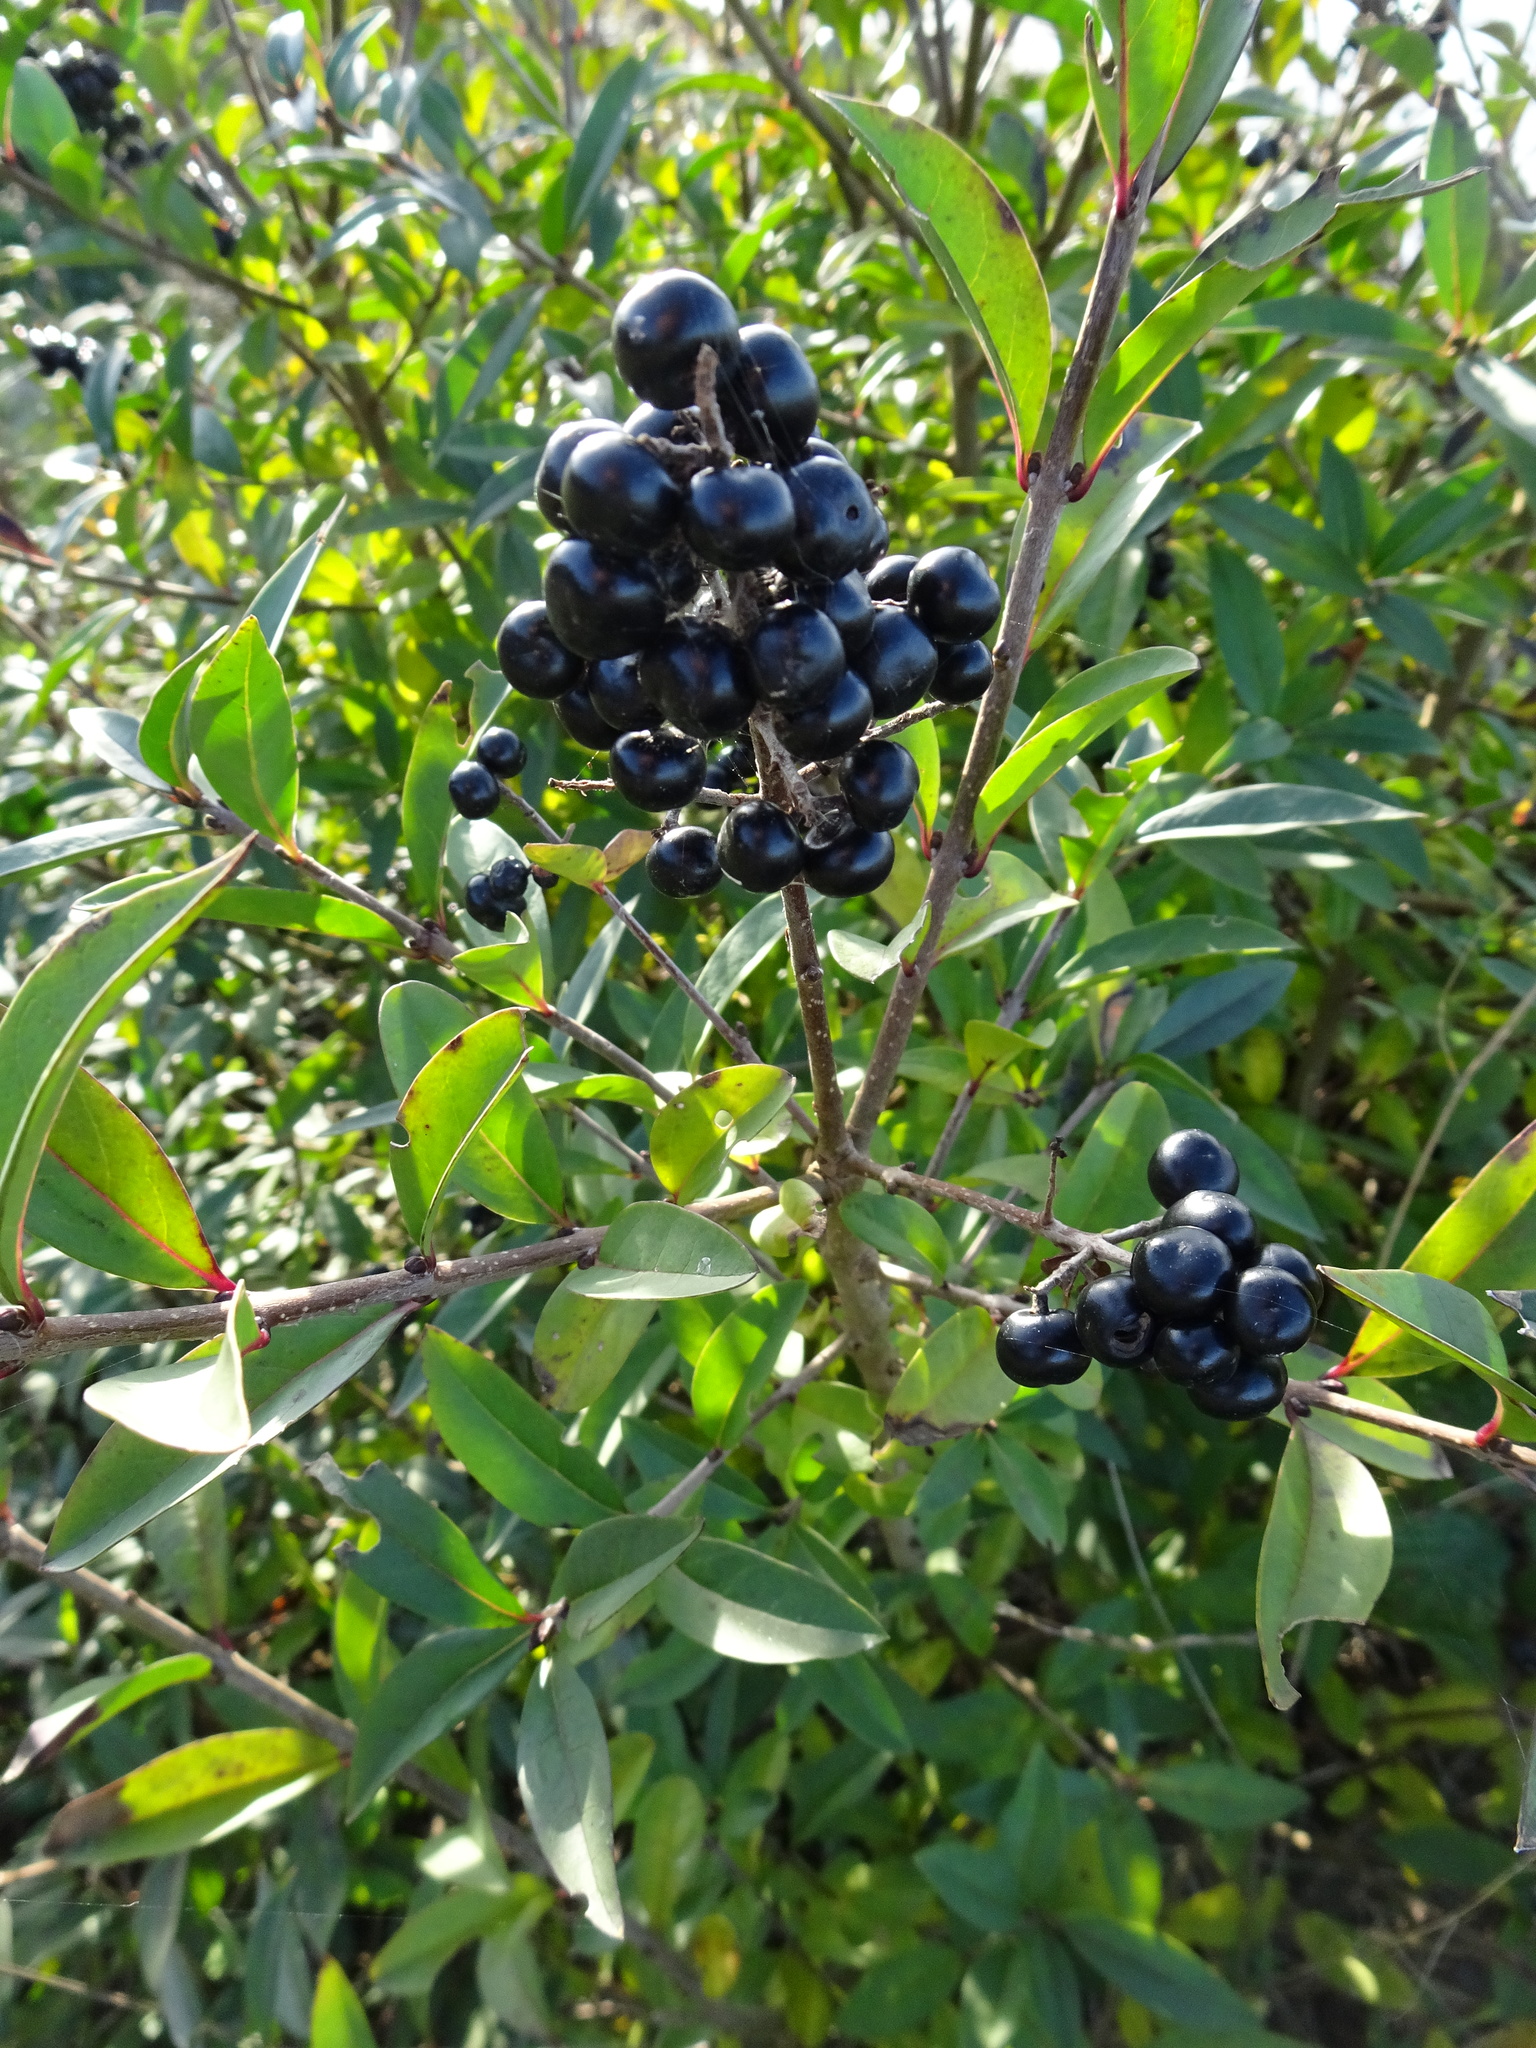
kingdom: Plantae
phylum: Tracheophyta
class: Magnoliopsida
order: Lamiales
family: Oleaceae
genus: Ligustrum
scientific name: Ligustrum vulgare
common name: Wild privet
